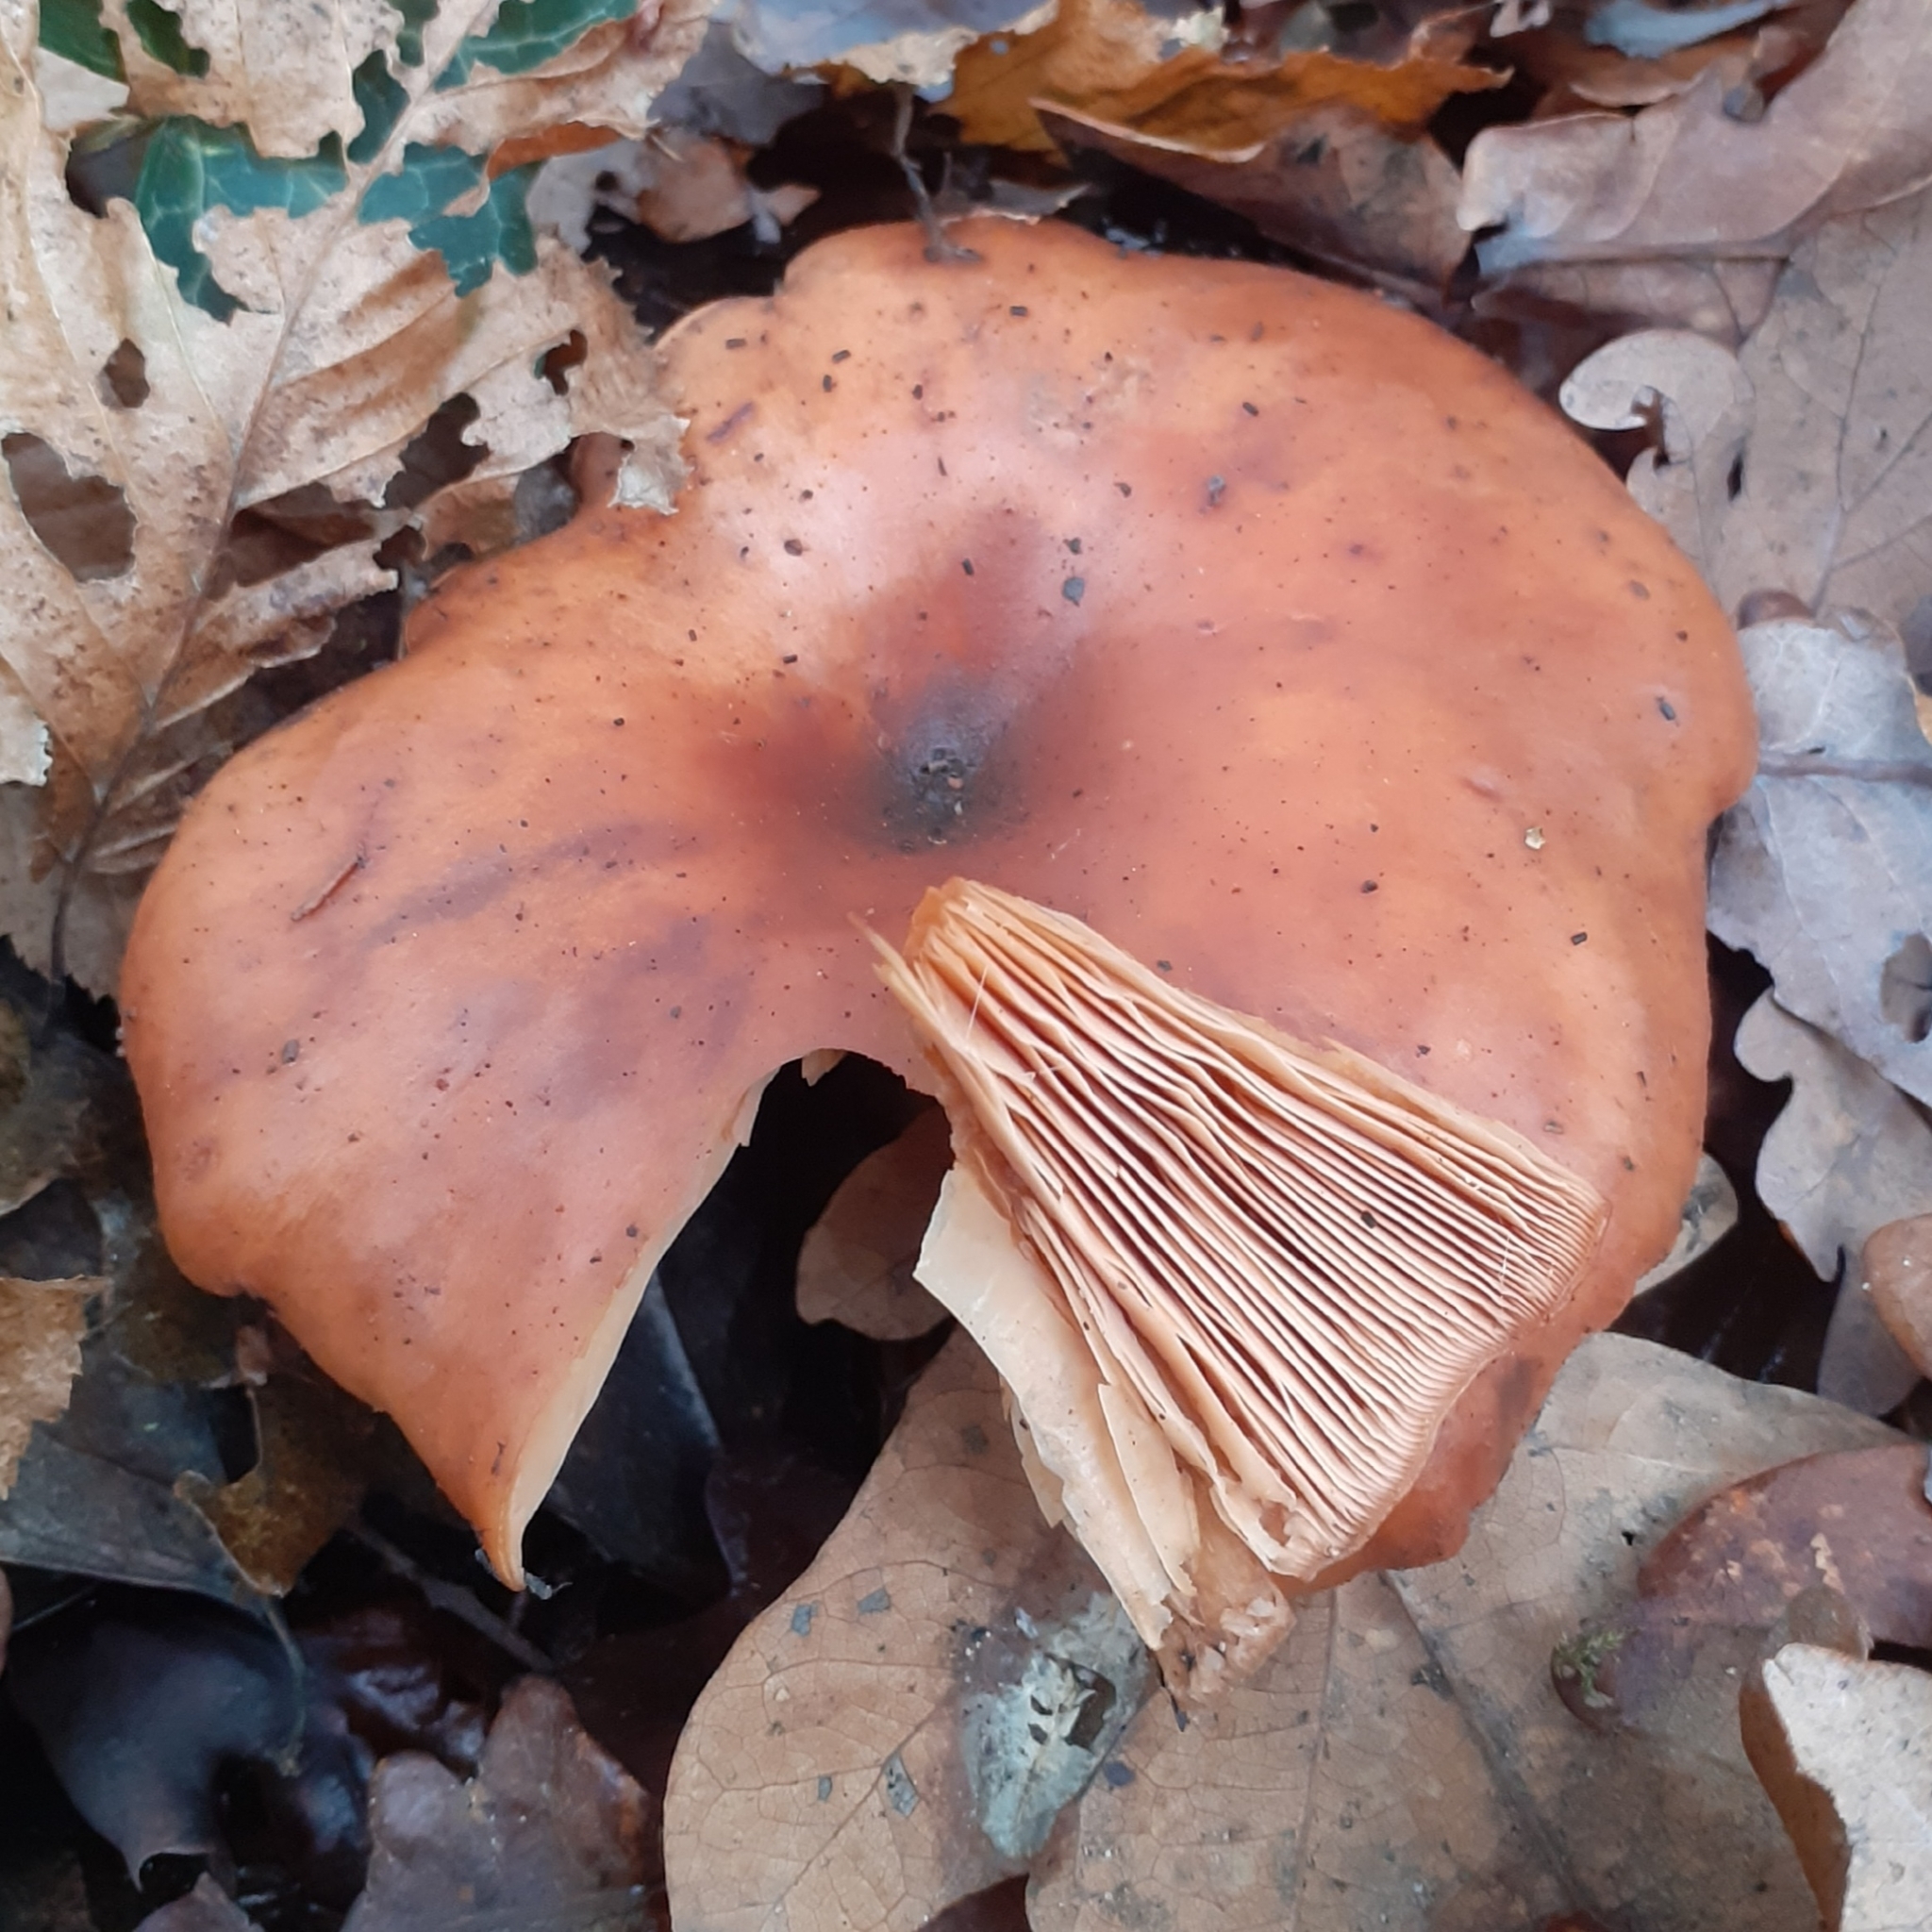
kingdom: Fungi
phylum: Basidiomycota
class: Agaricomycetes
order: Agaricales
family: Tricholomataceae
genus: Paralepista
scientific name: Paralepista flaccida
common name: Tawny funnel cap
